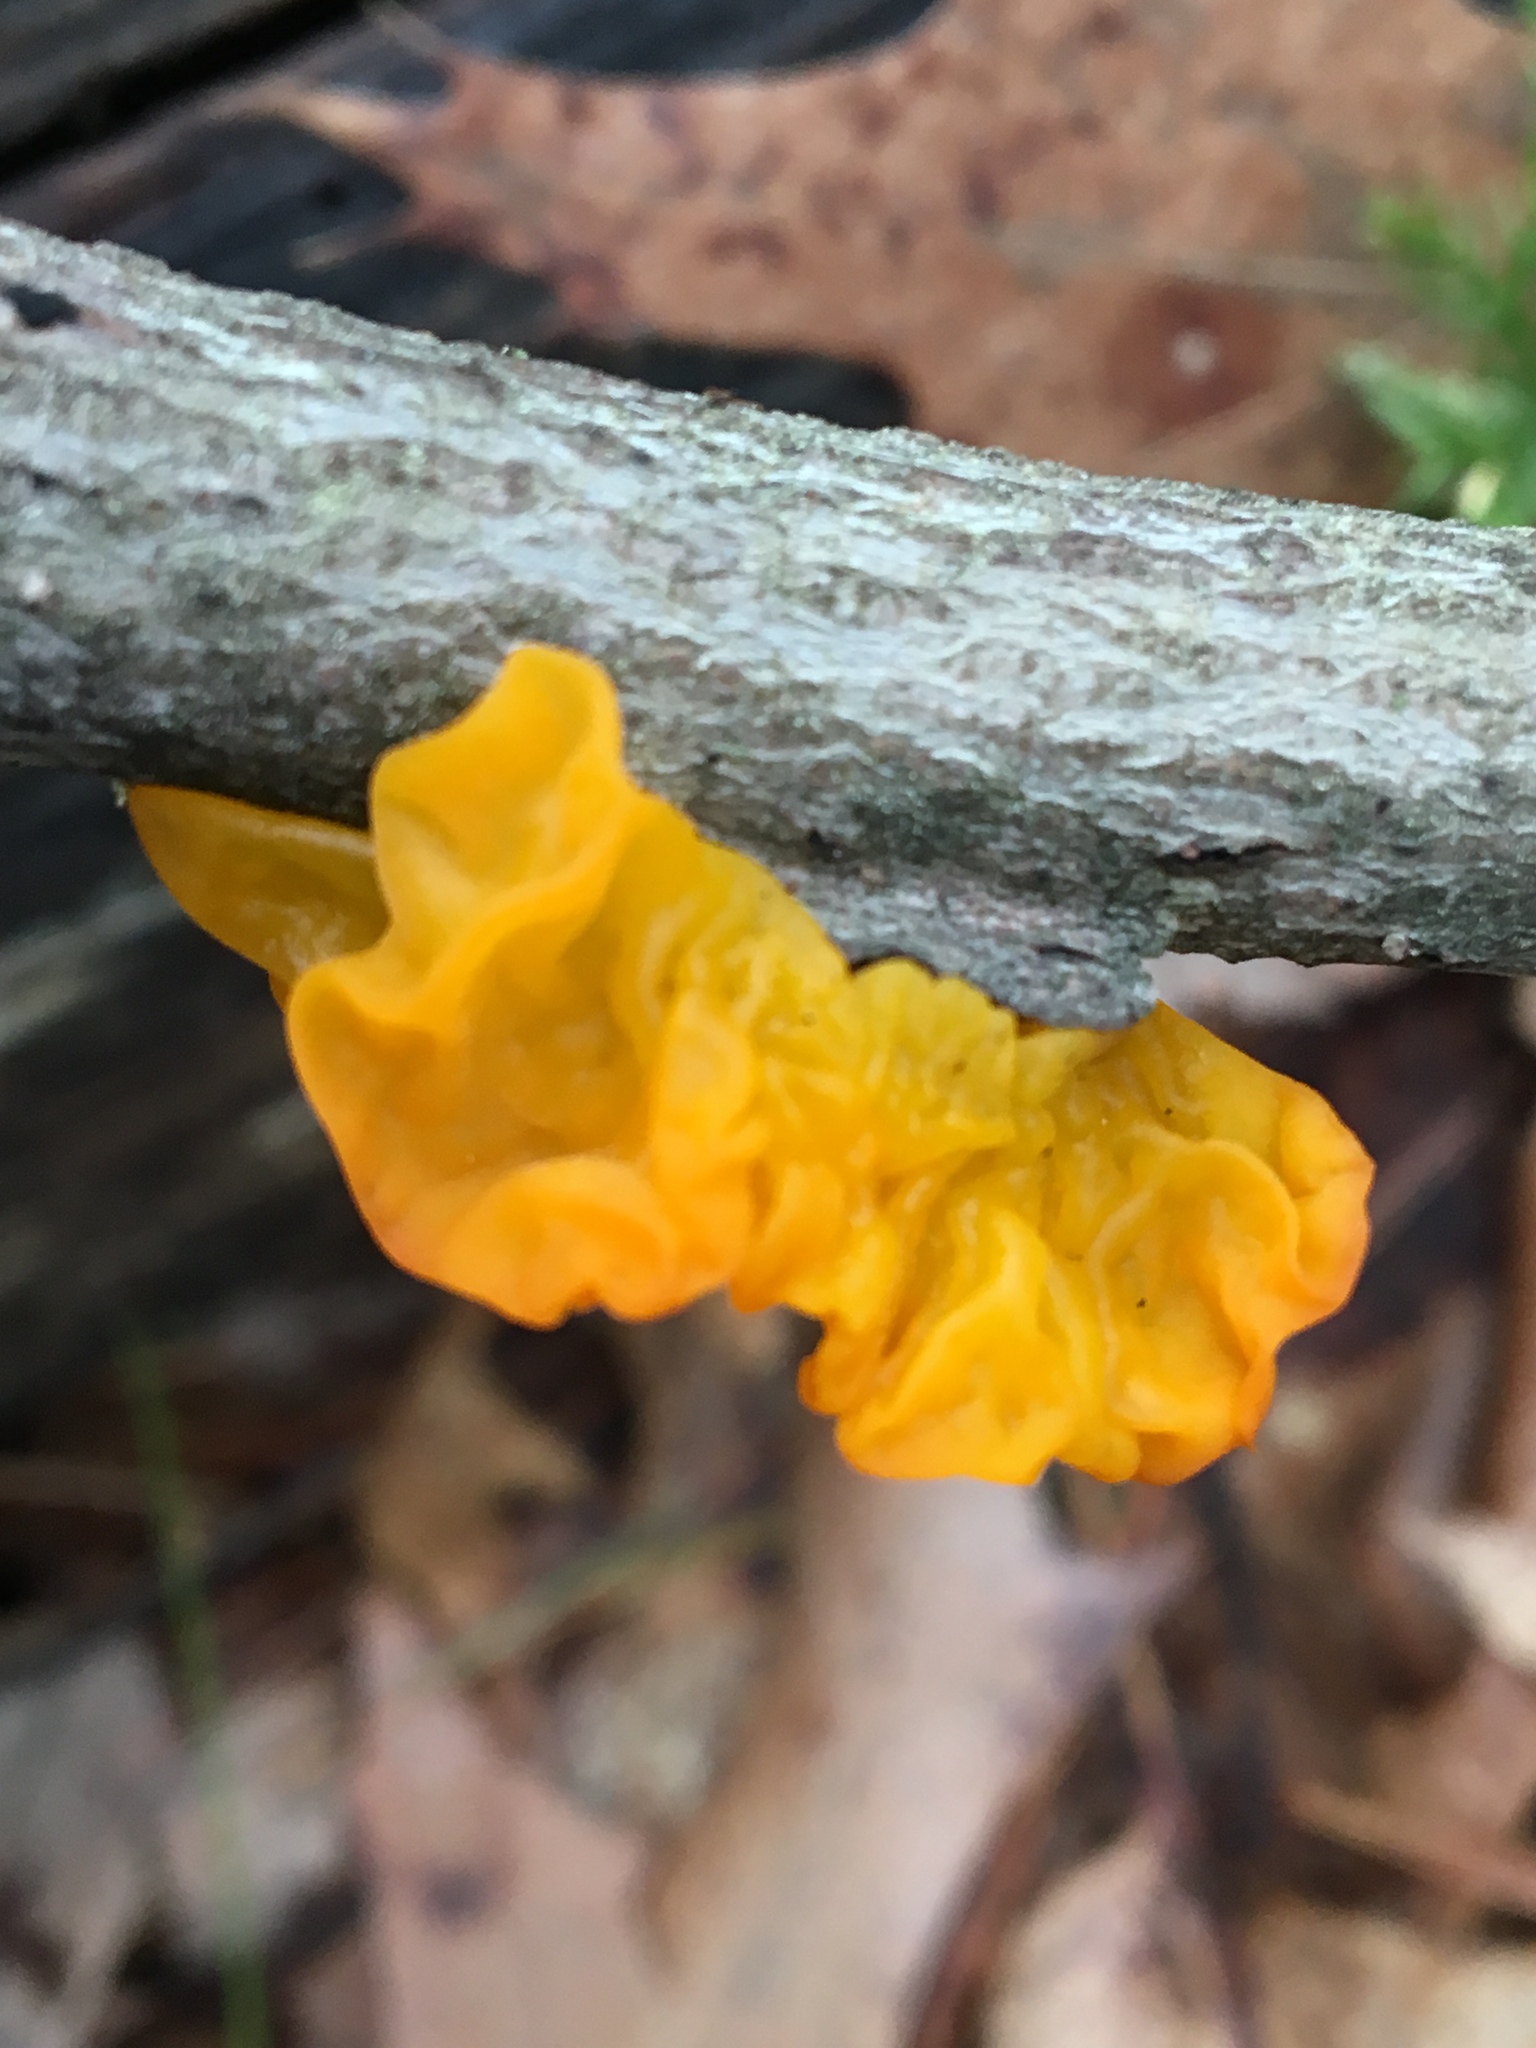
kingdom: Fungi
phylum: Basidiomycota
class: Tremellomycetes
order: Tremellales
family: Tremellaceae
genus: Tremella
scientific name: Tremella mesenterica
